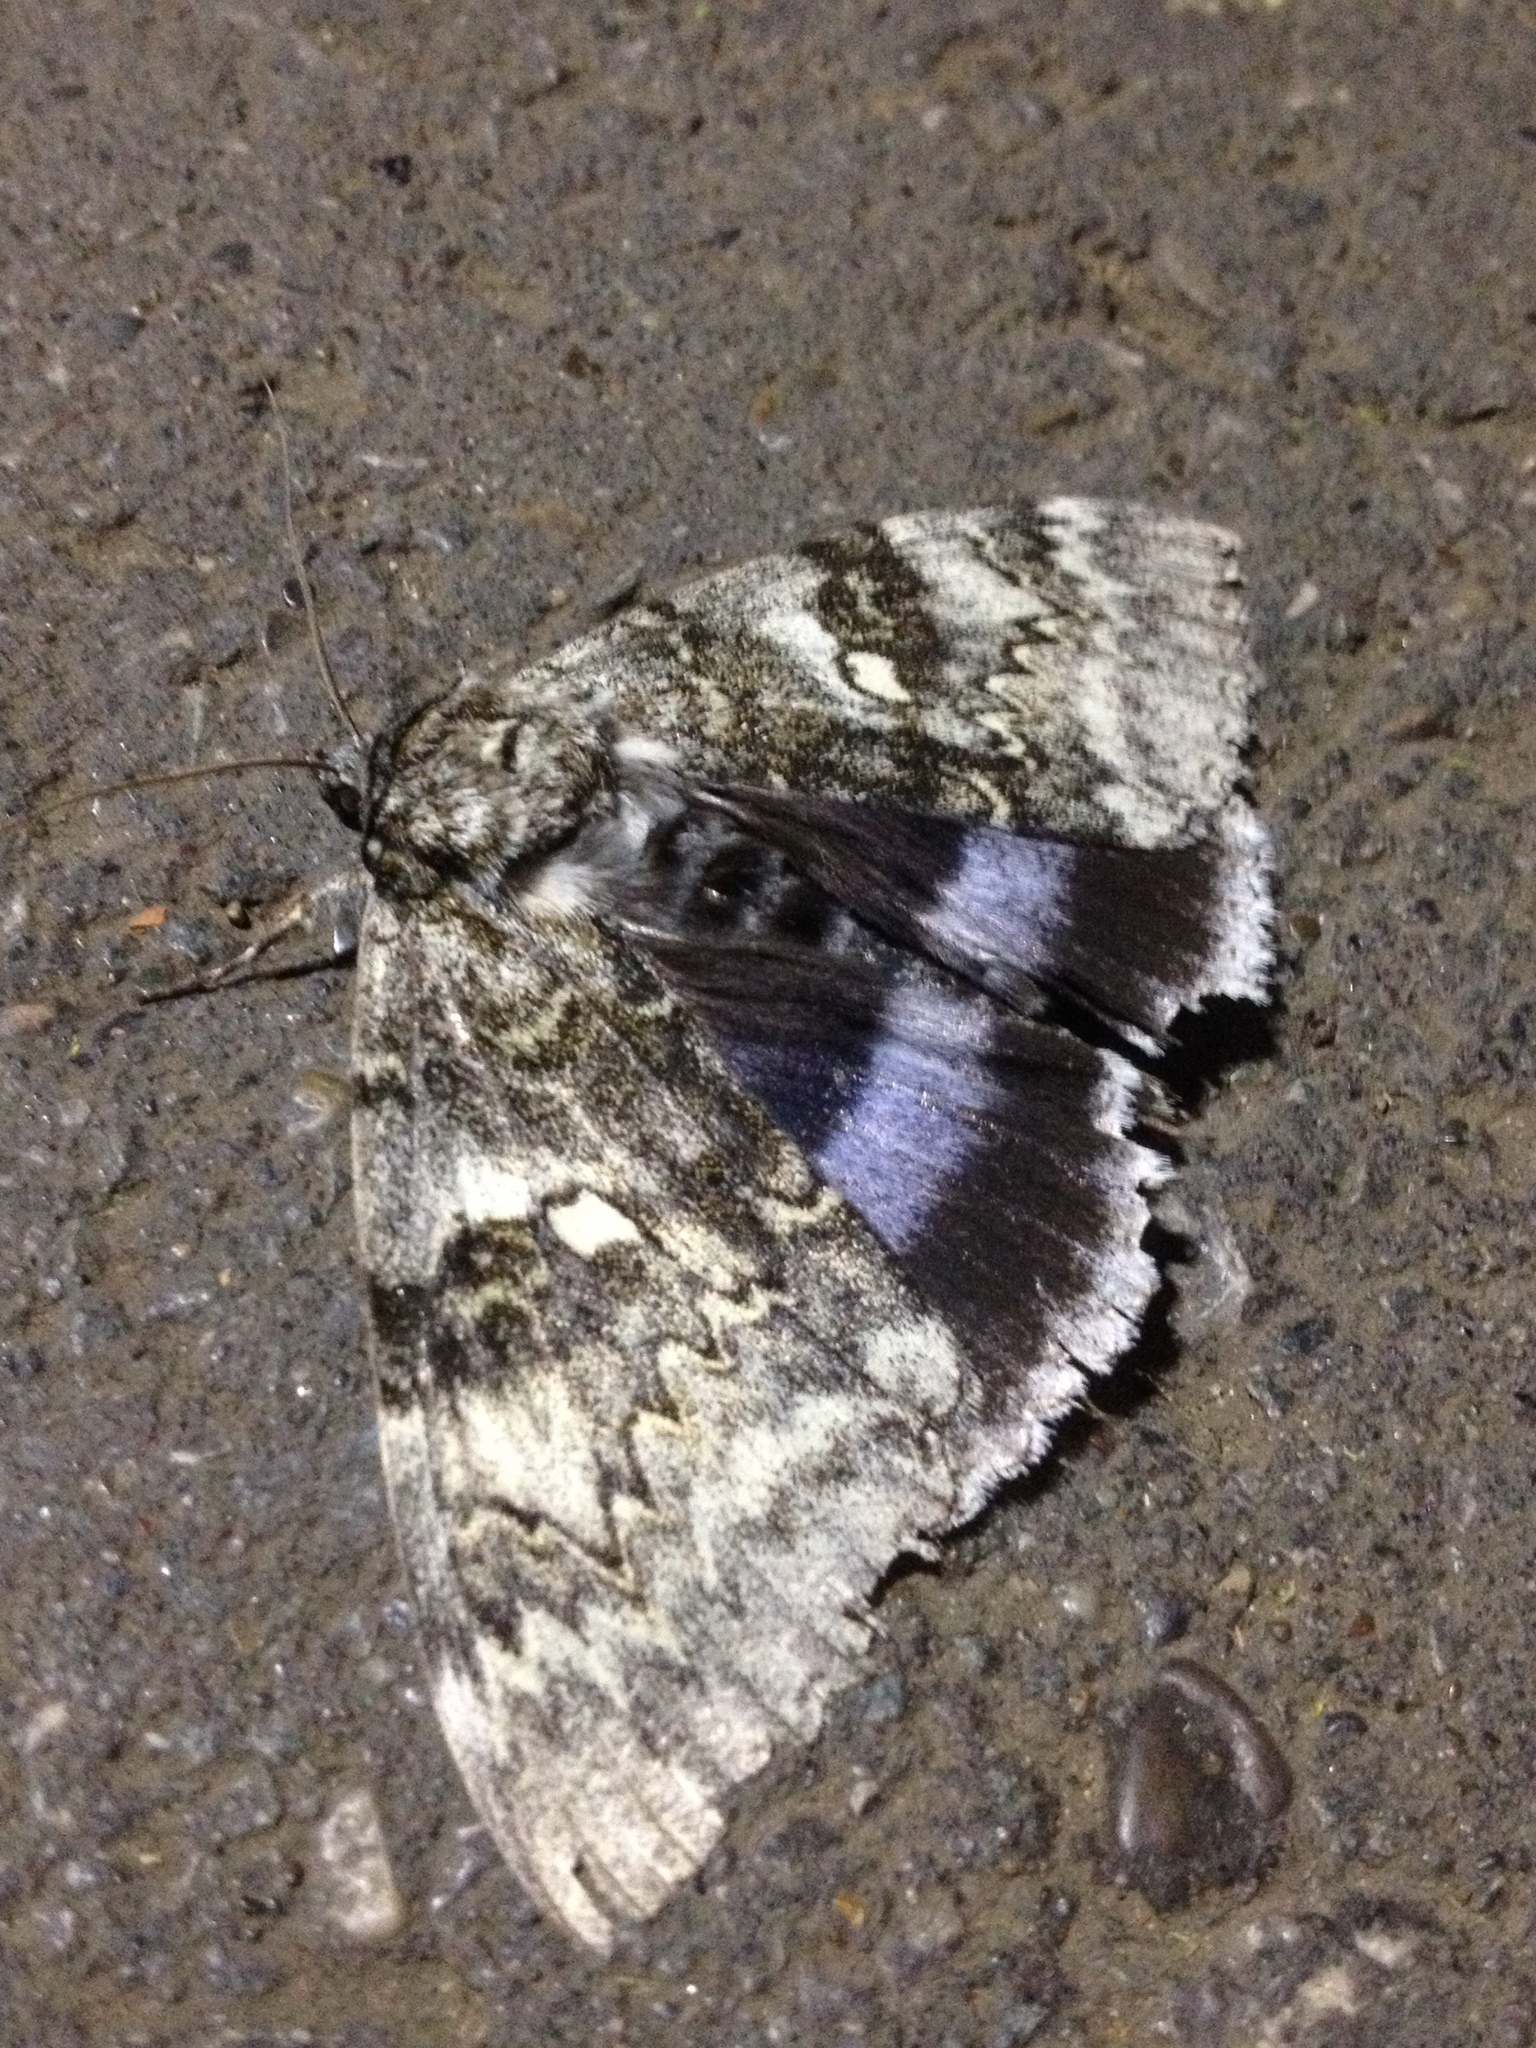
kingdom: Animalia
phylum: Arthropoda
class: Insecta
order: Lepidoptera
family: Erebidae
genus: Catocala
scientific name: Catocala fraxini
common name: Clifden nonpareil
